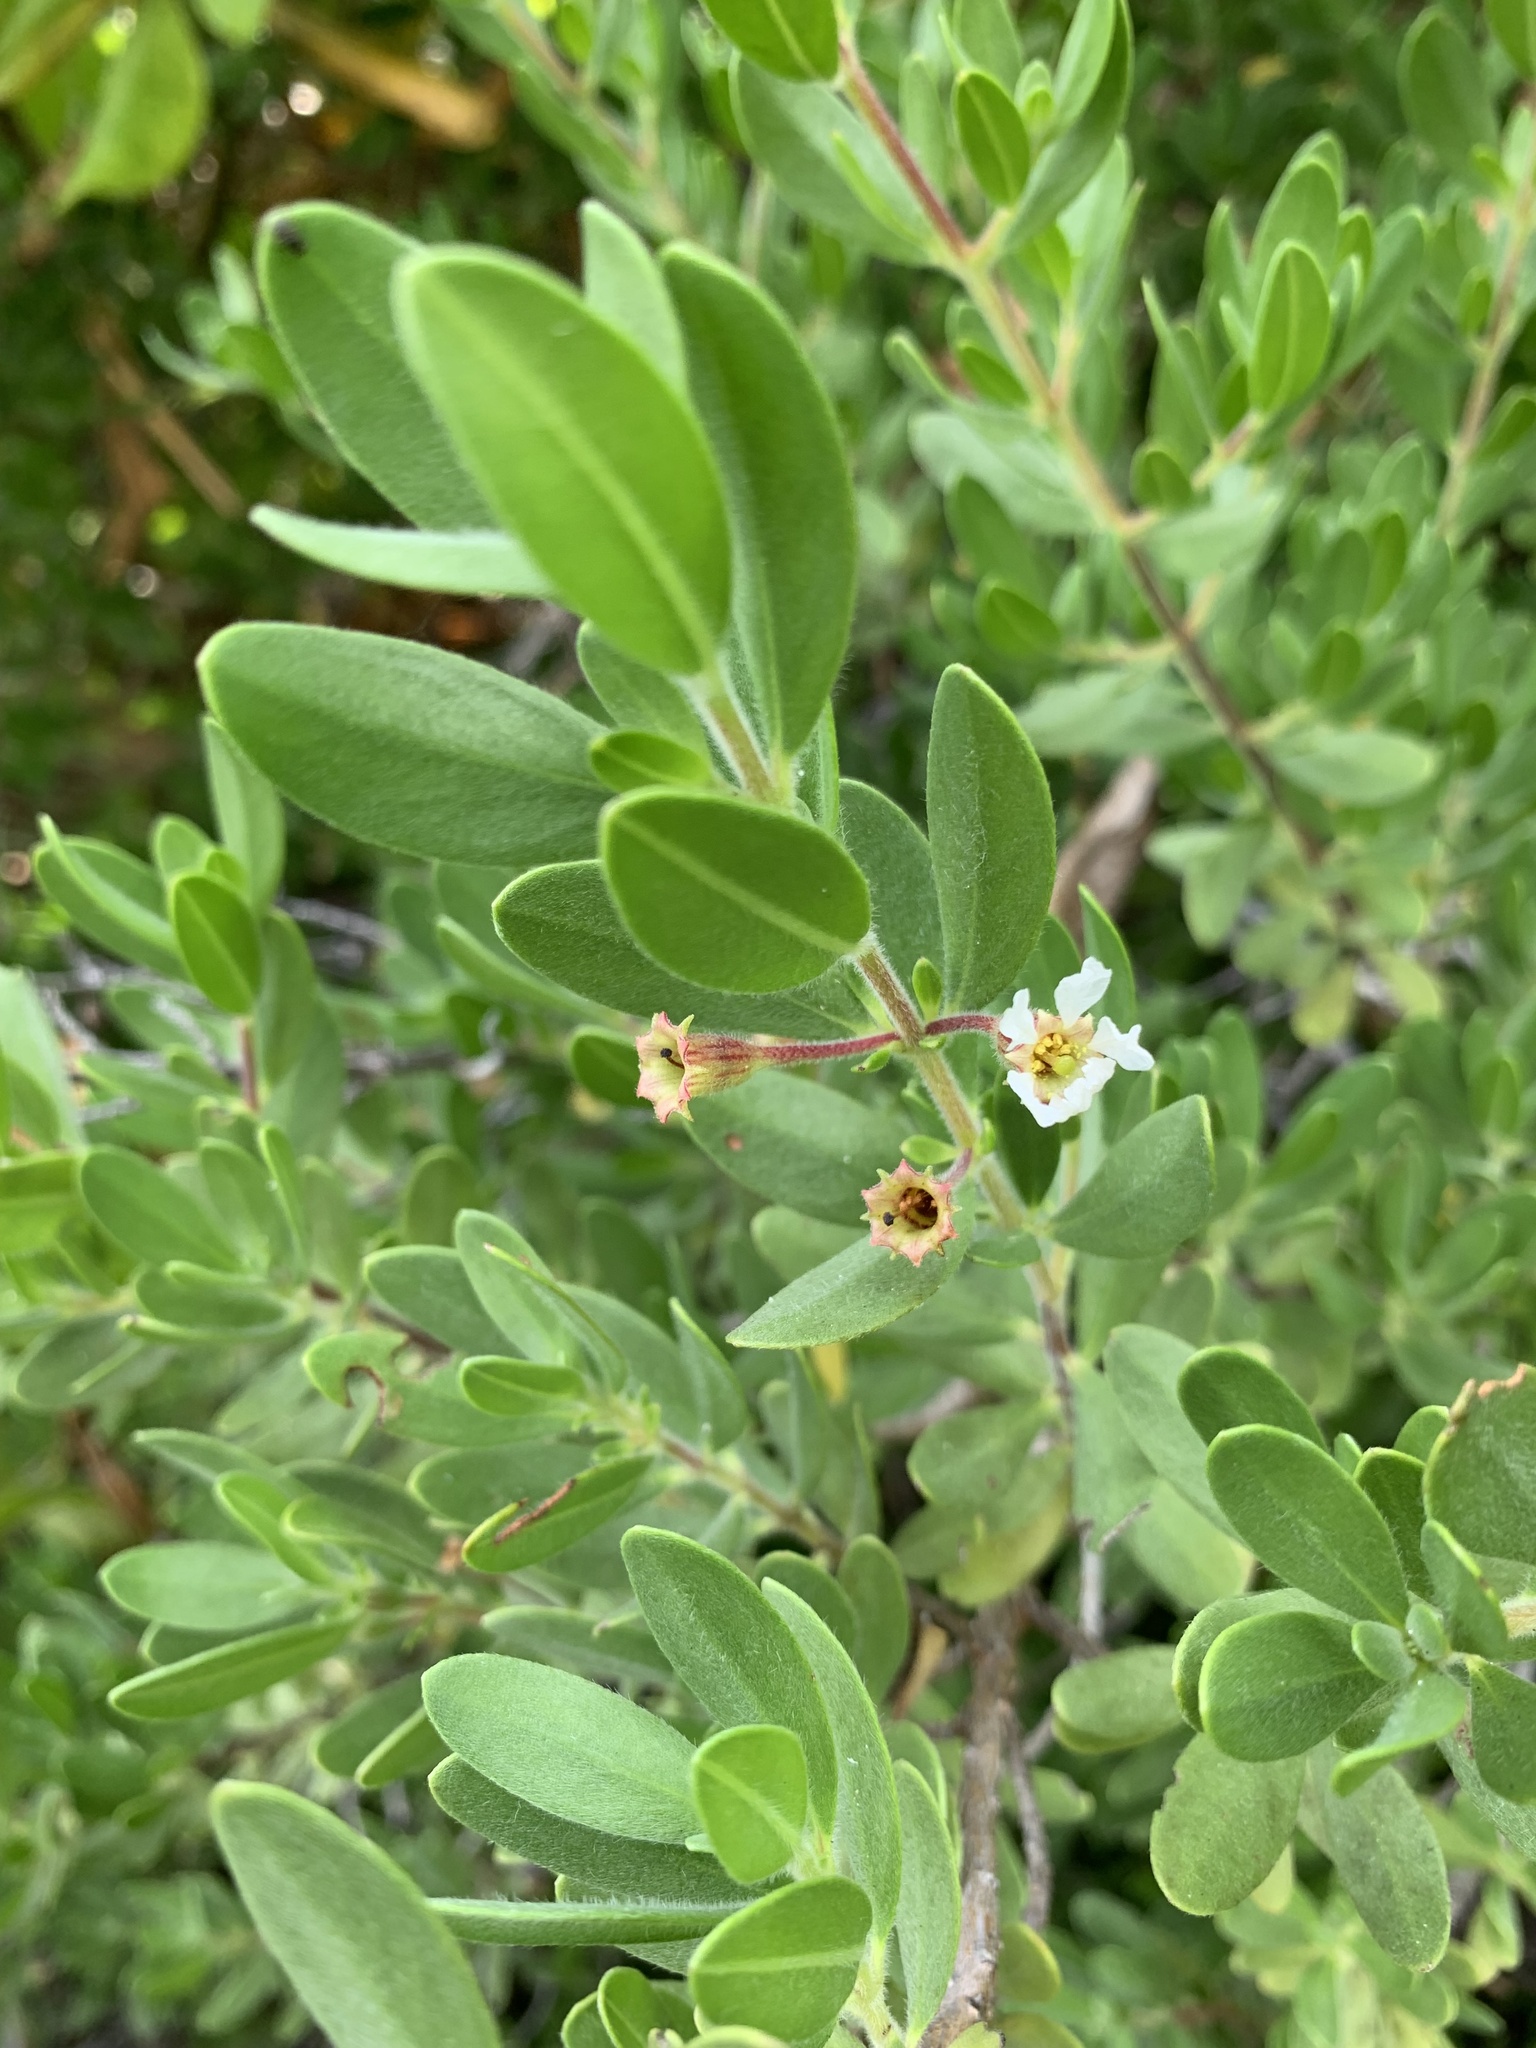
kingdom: Plantae
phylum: Tracheophyta
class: Magnoliopsida
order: Myrtales
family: Lythraceae
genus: Pemphis
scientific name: Pemphis acidula
